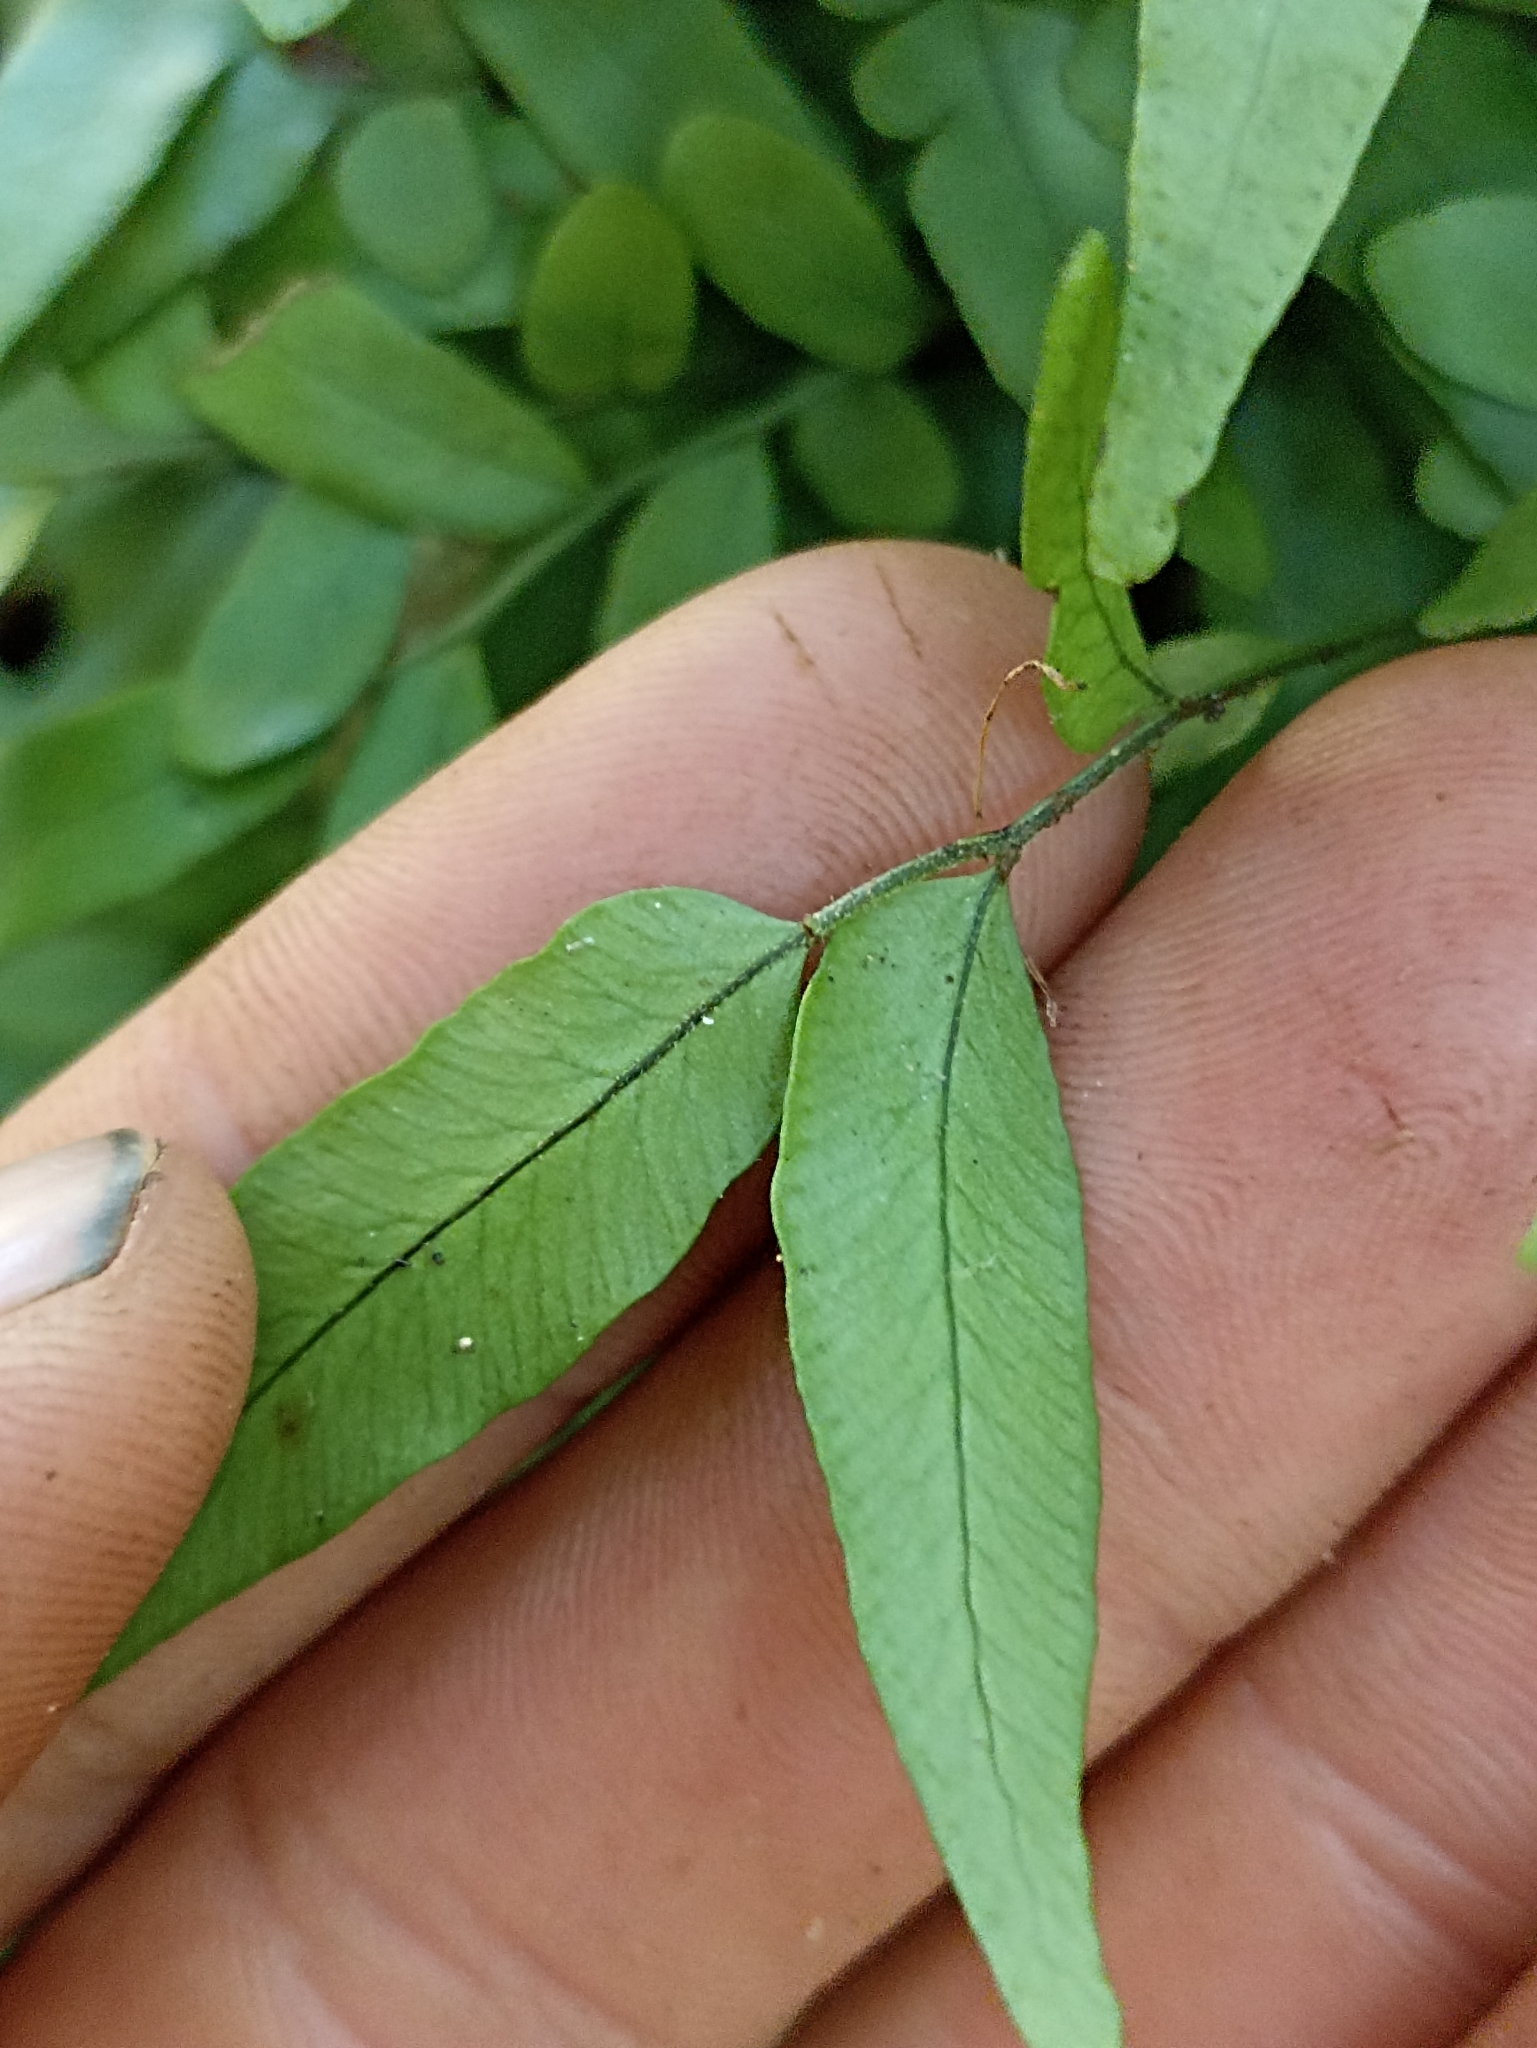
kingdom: Plantae
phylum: Tracheophyta
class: Polypodiopsida
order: Polypodiales
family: Tectariaceae
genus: Arthropteris
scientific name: Arthropteris tenella
